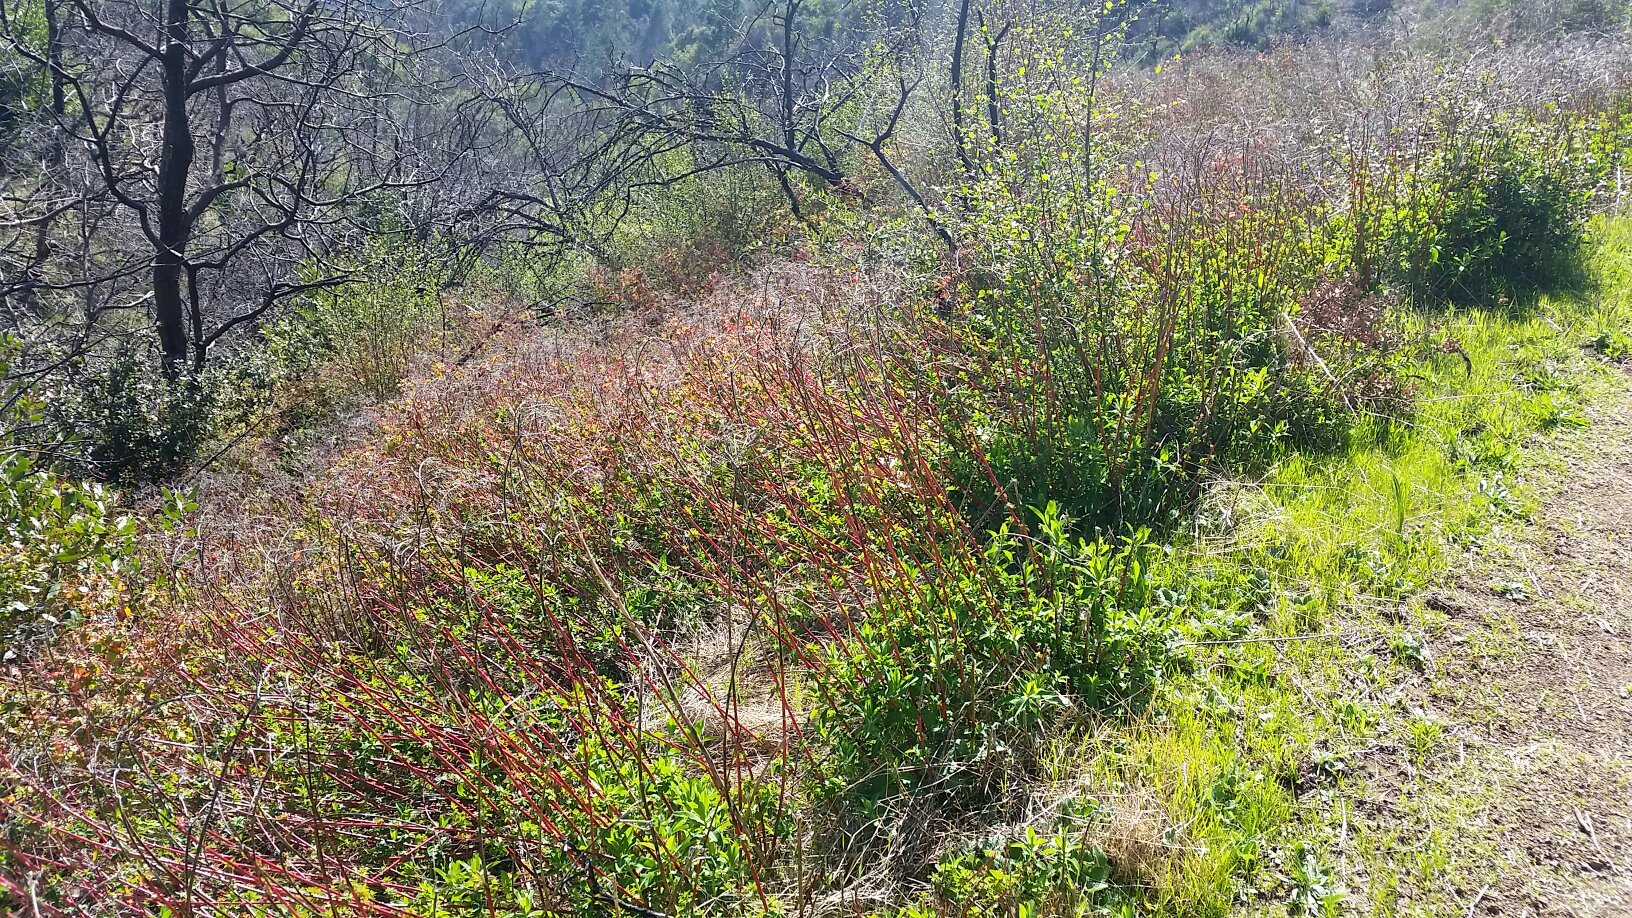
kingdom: Plantae
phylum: Tracheophyta
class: Magnoliopsida
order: Malpighiales
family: Euphorbiaceae
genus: Euphorbia
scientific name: Euphorbia oblongata
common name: Balkan spurge
